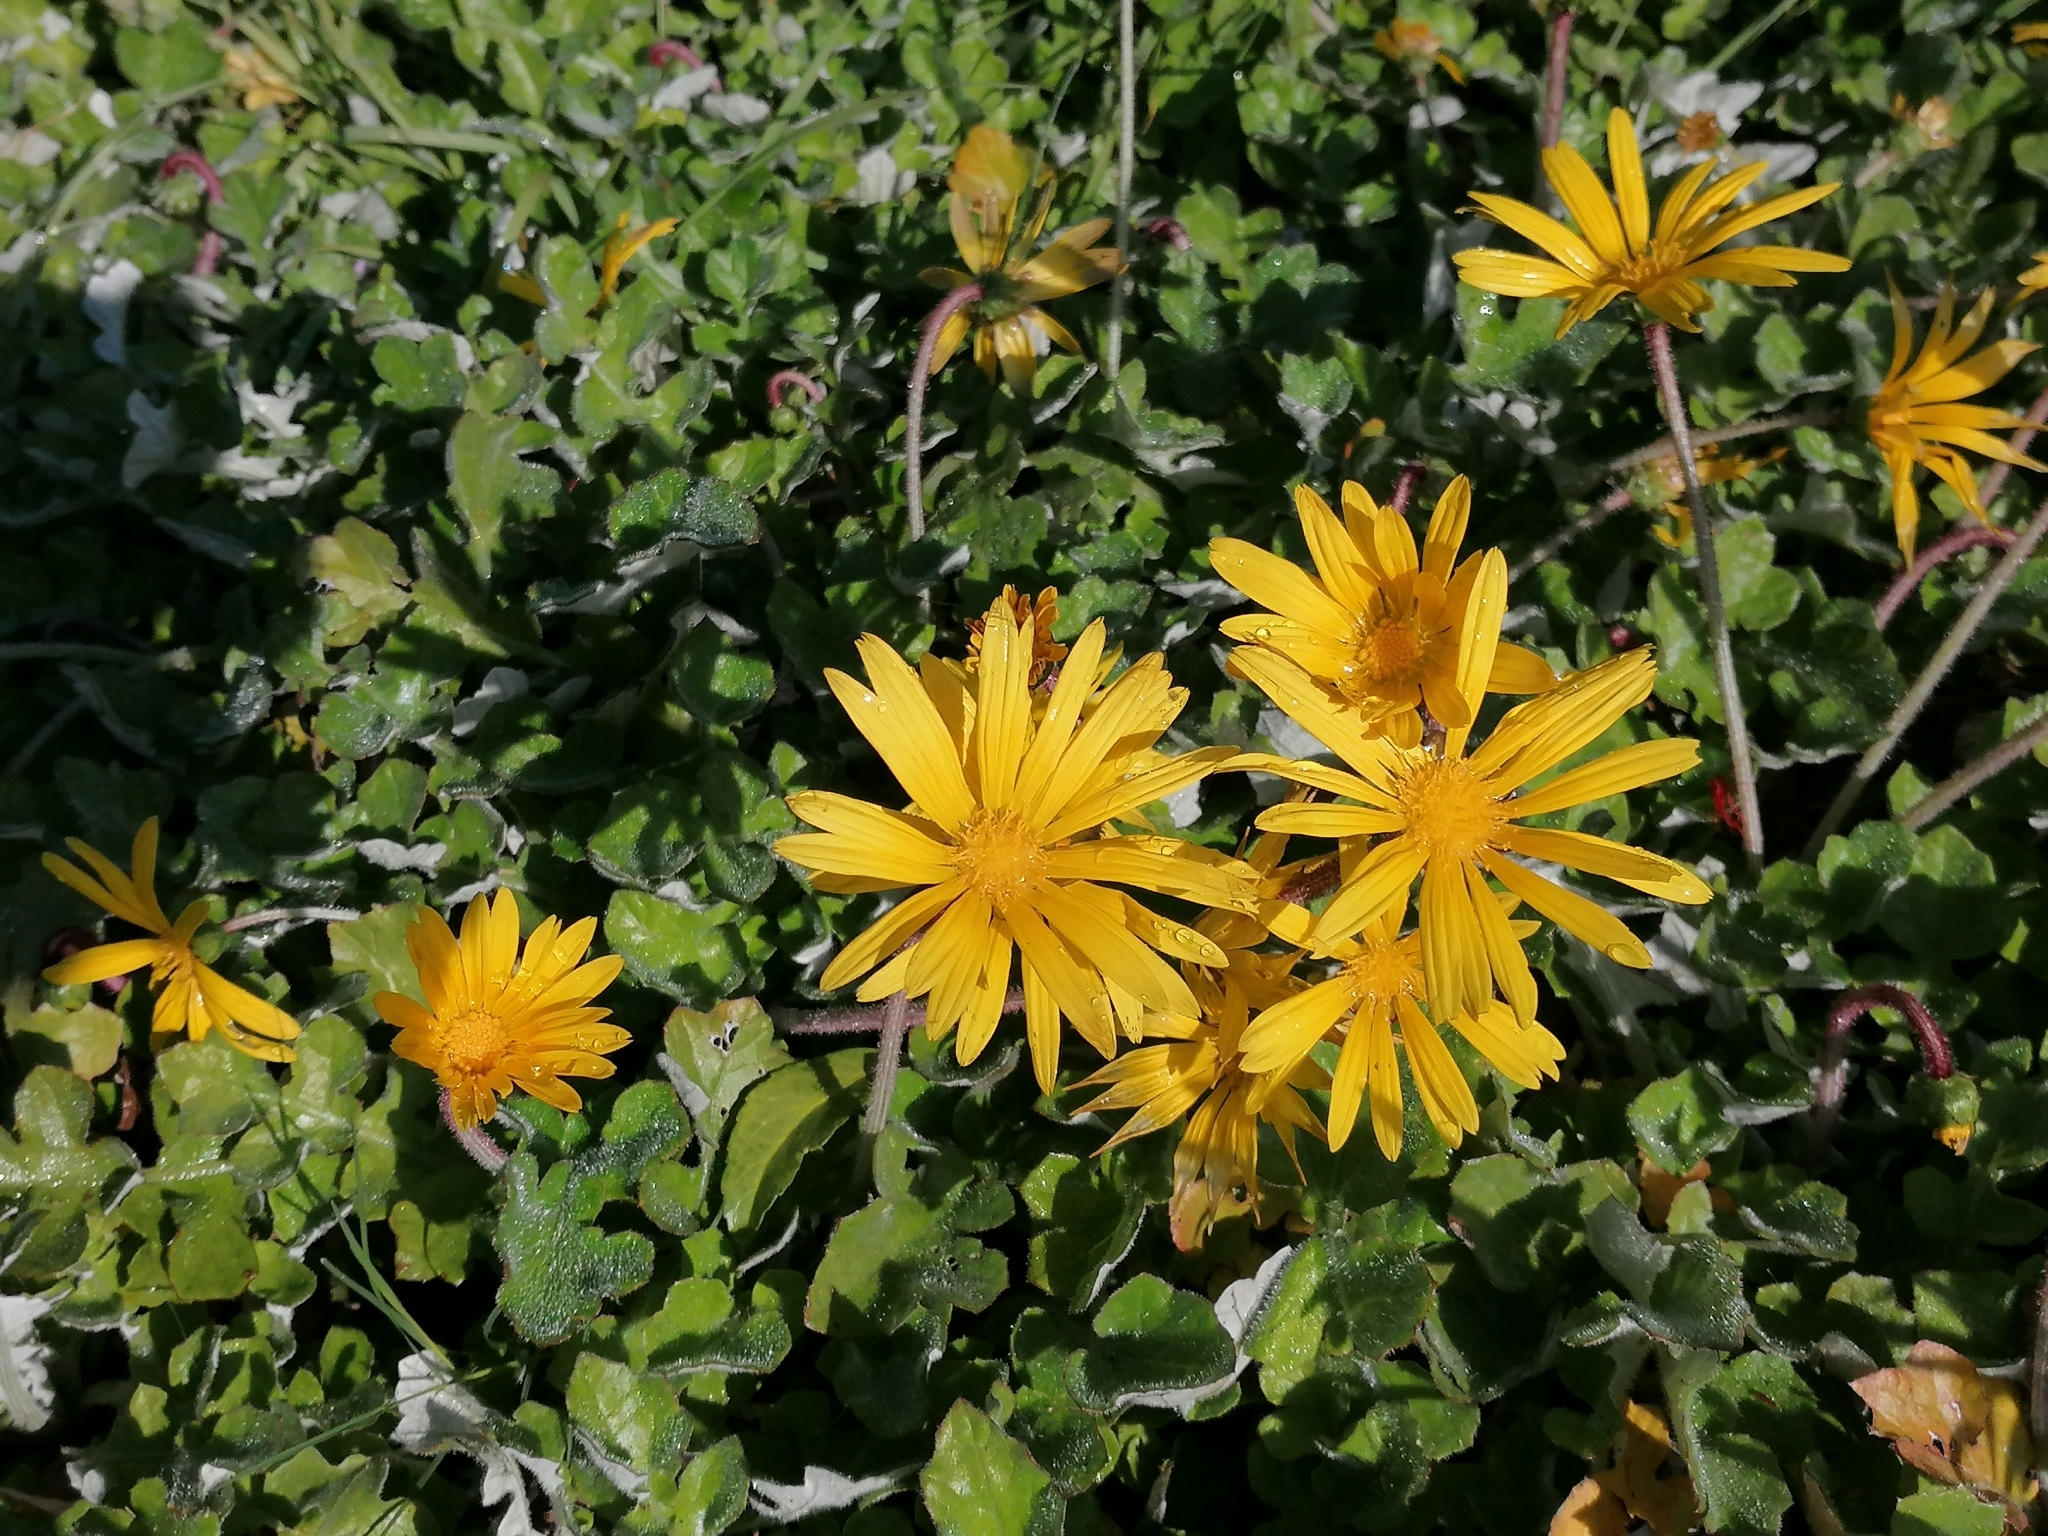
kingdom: Plantae
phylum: Tracheophyta
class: Magnoliopsida
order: Asterales
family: Asteraceae
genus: Arctotheca
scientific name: Arctotheca prostrata
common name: Capeweed
